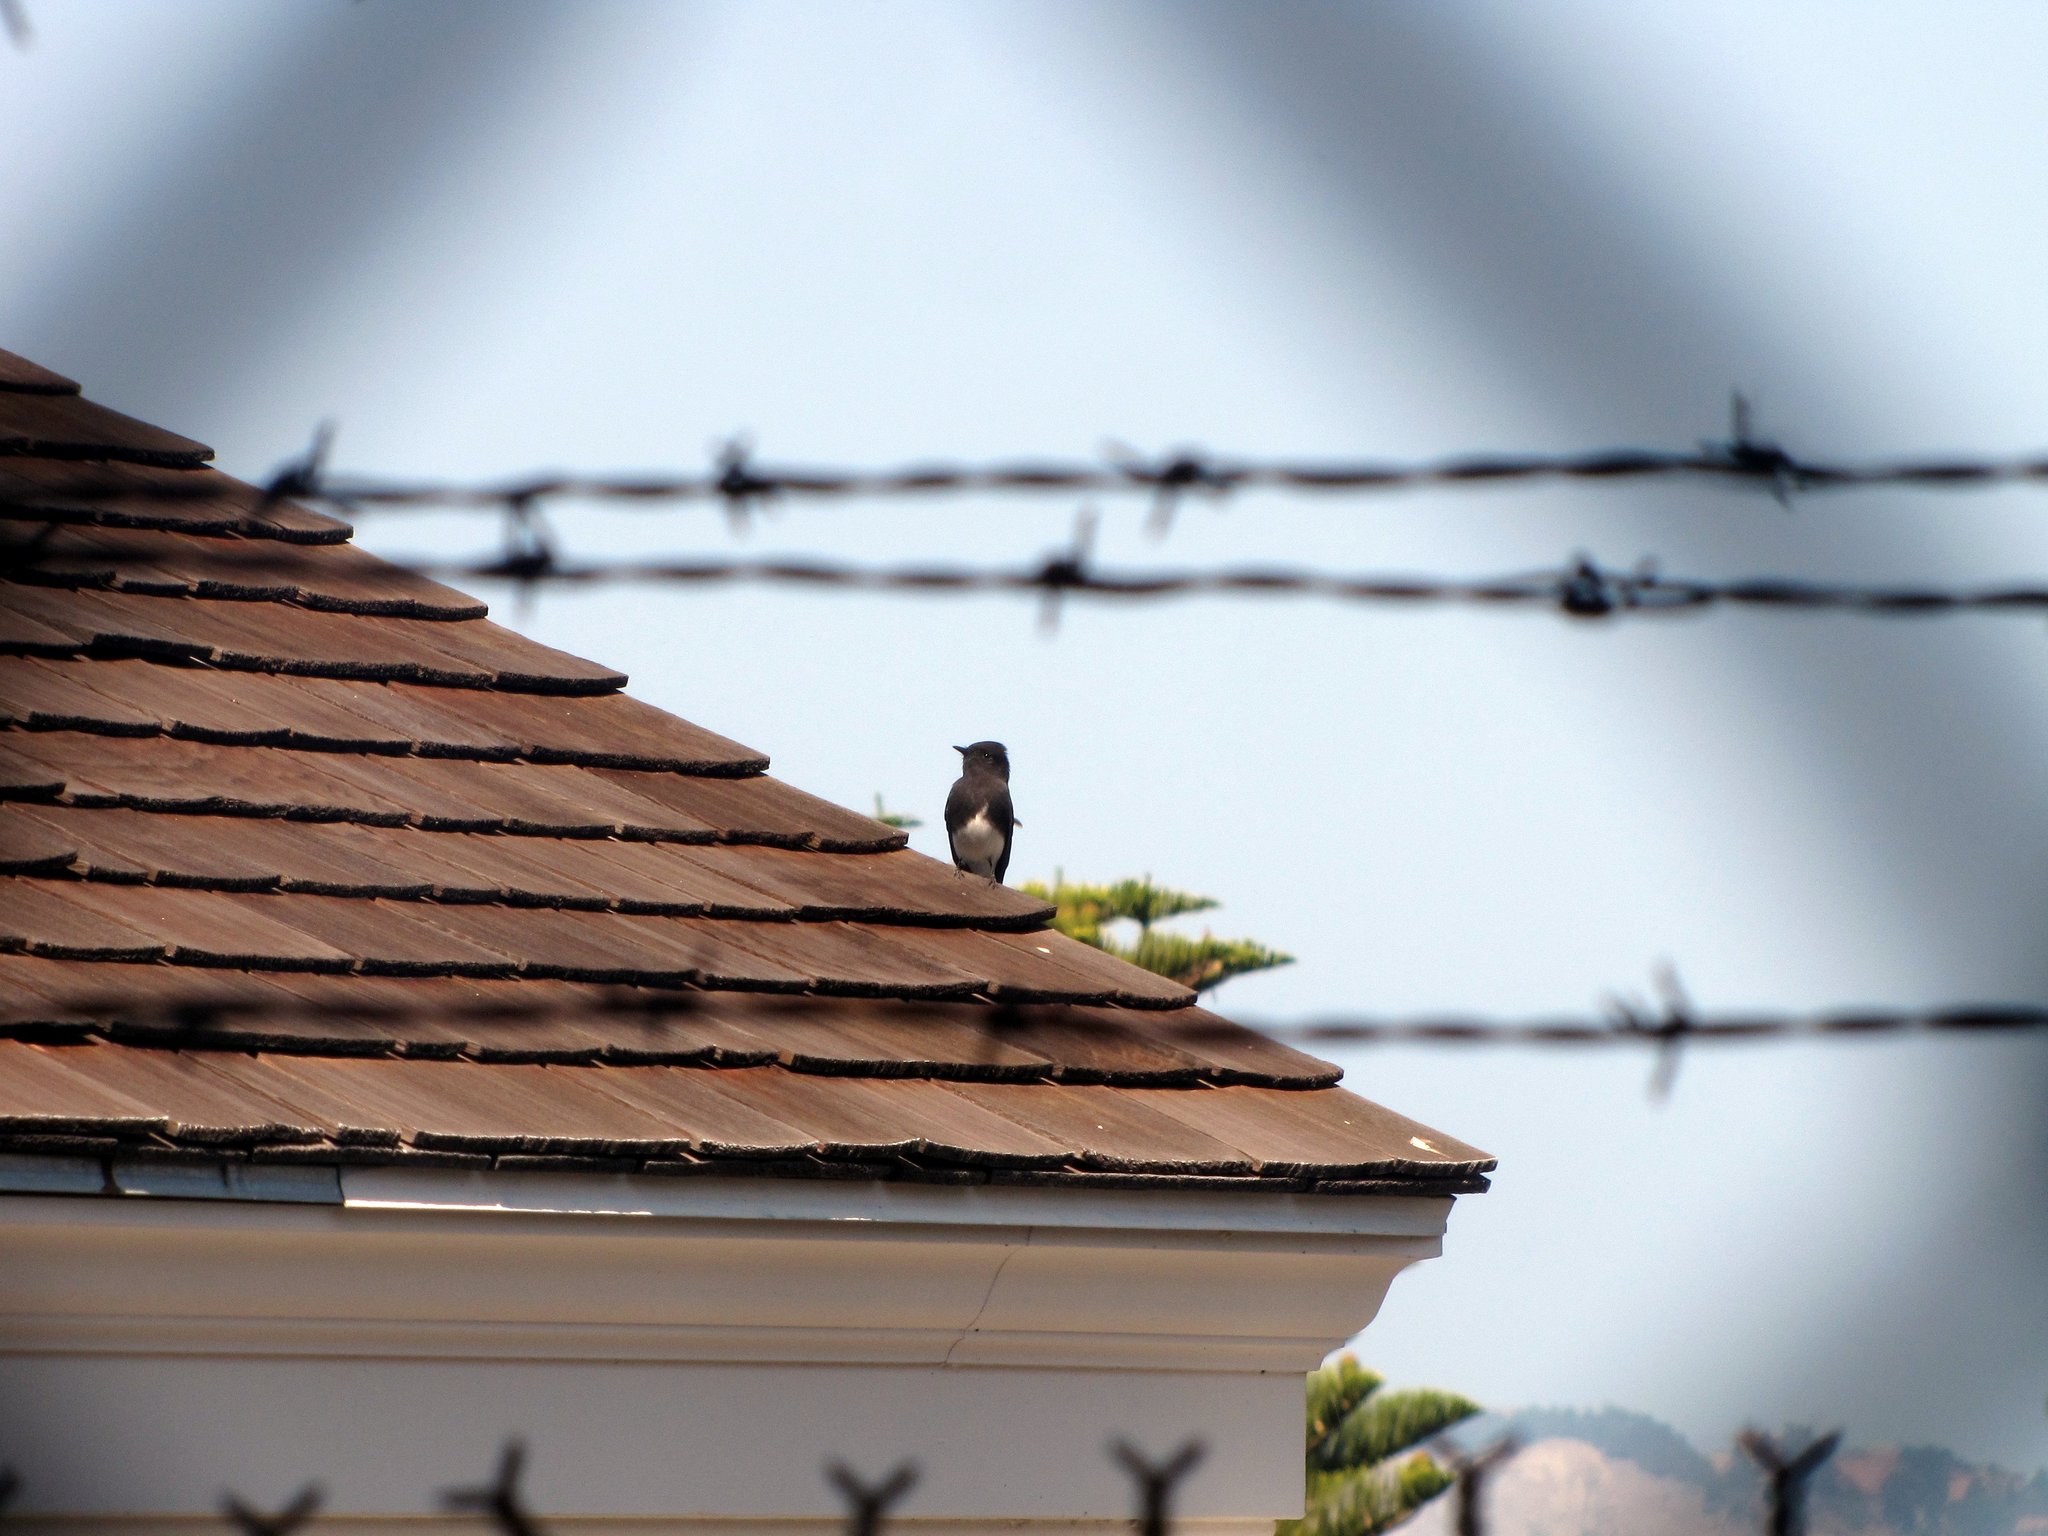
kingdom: Animalia
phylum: Chordata
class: Aves
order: Passeriformes
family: Tyrannidae
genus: Sayornis
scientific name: Sayornis nigricans
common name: Black phoebe
